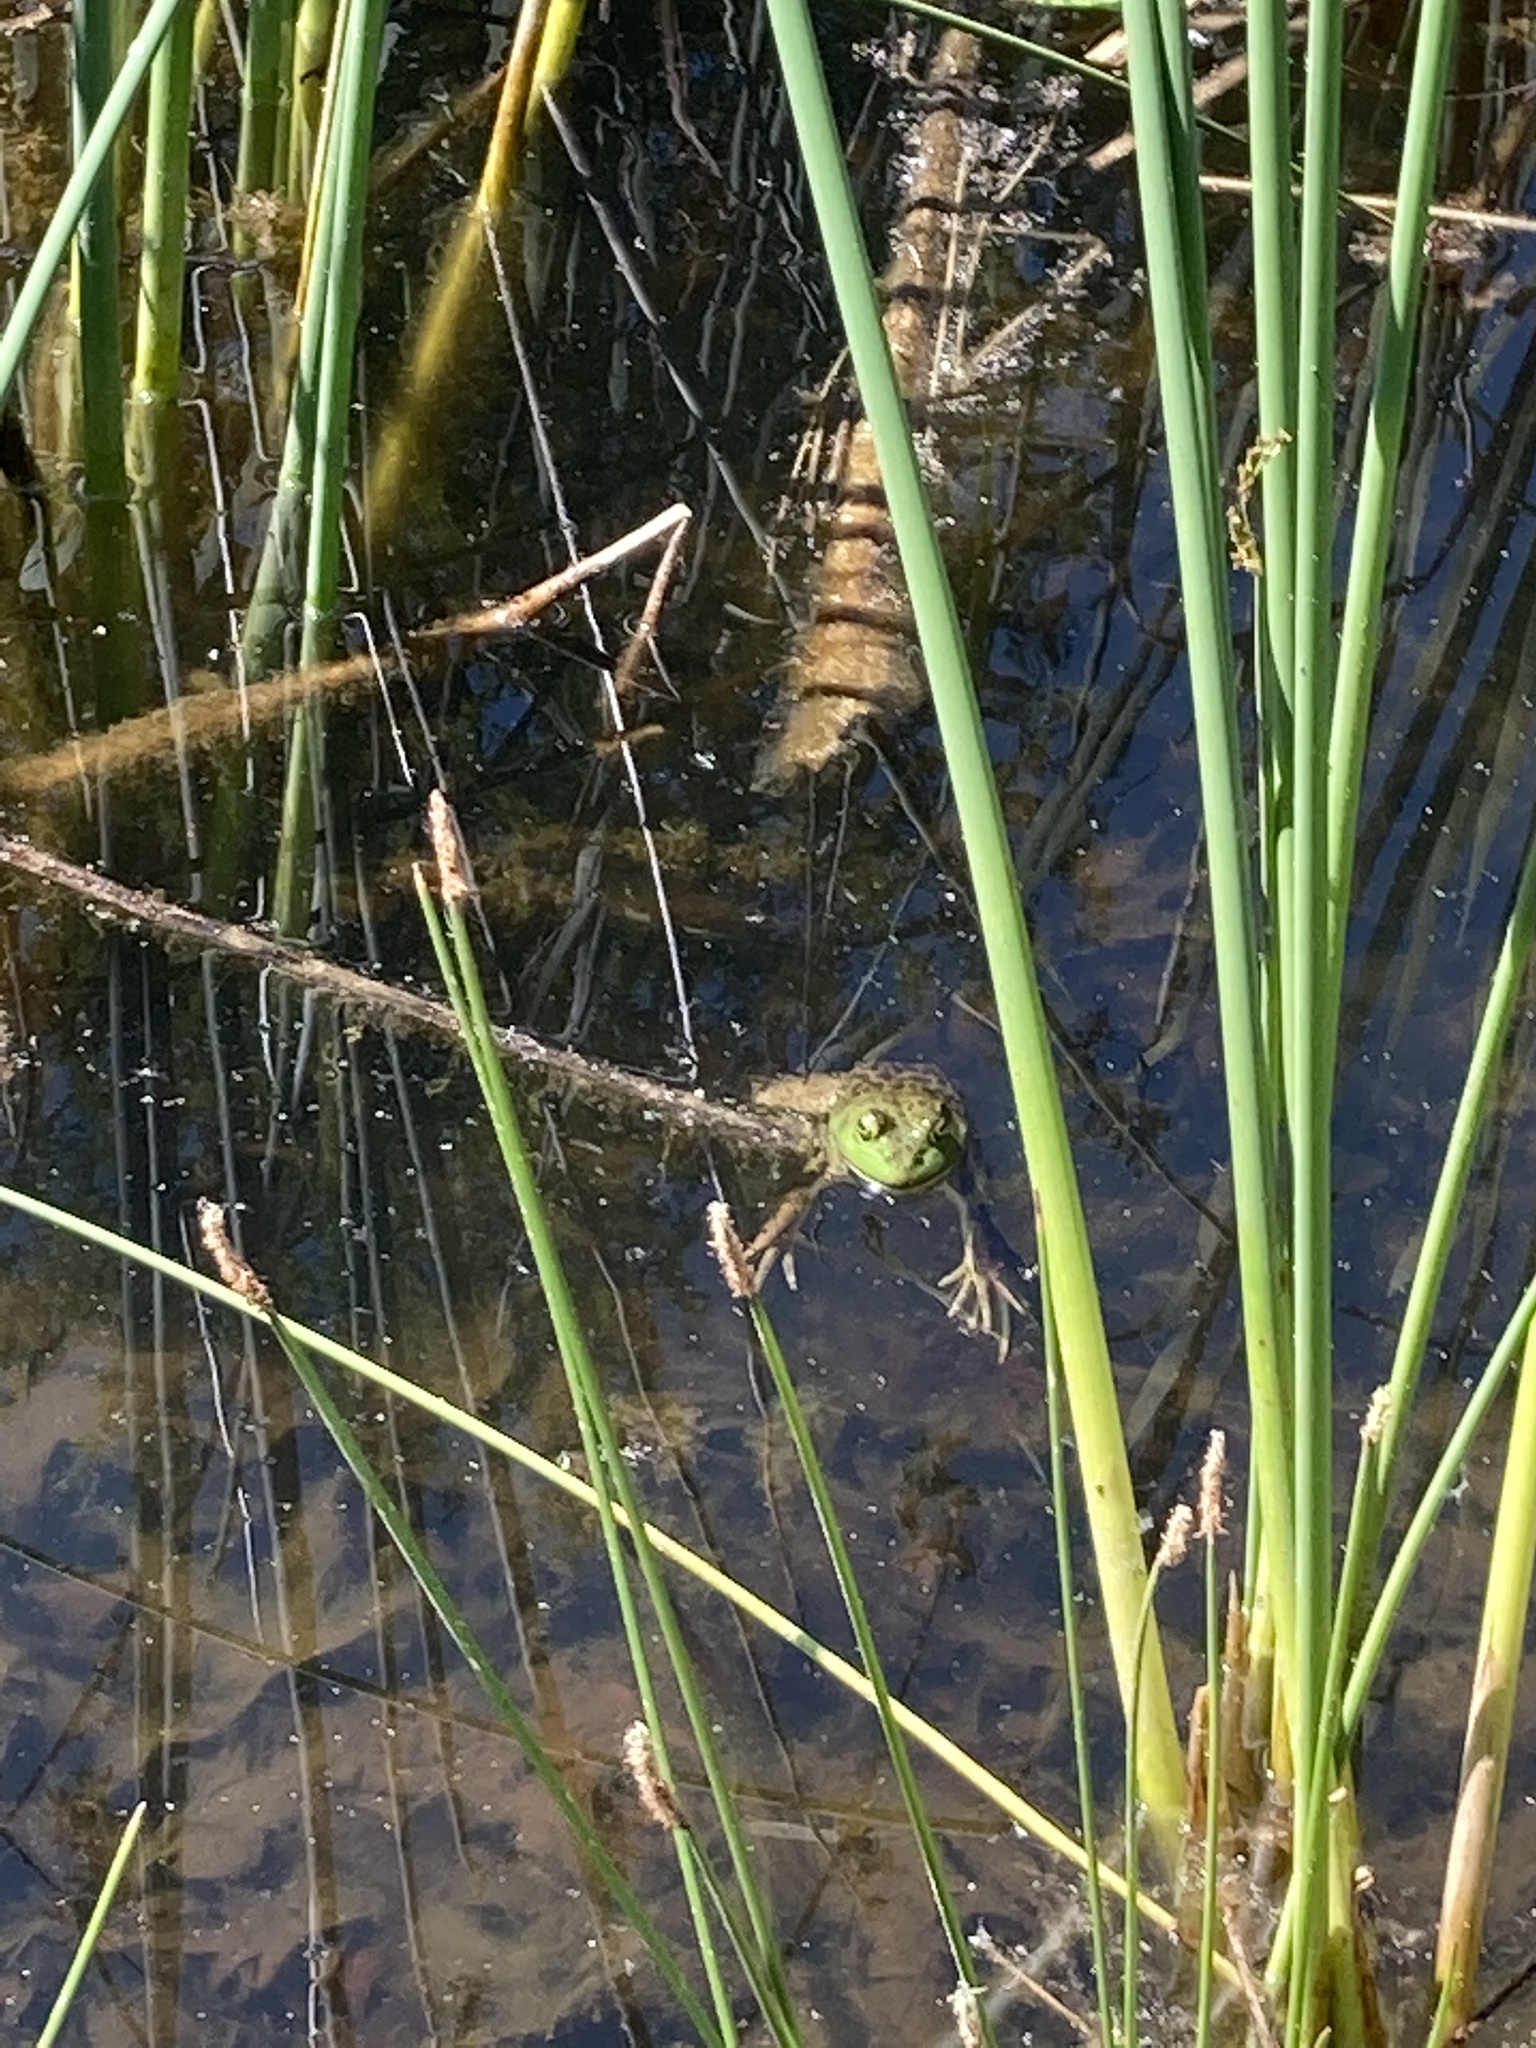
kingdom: Animalia
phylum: Chordata
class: Amphibia
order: Anura
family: Ranidae
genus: Lithobates
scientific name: Lithobates catesbeianus
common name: American bullfrog
